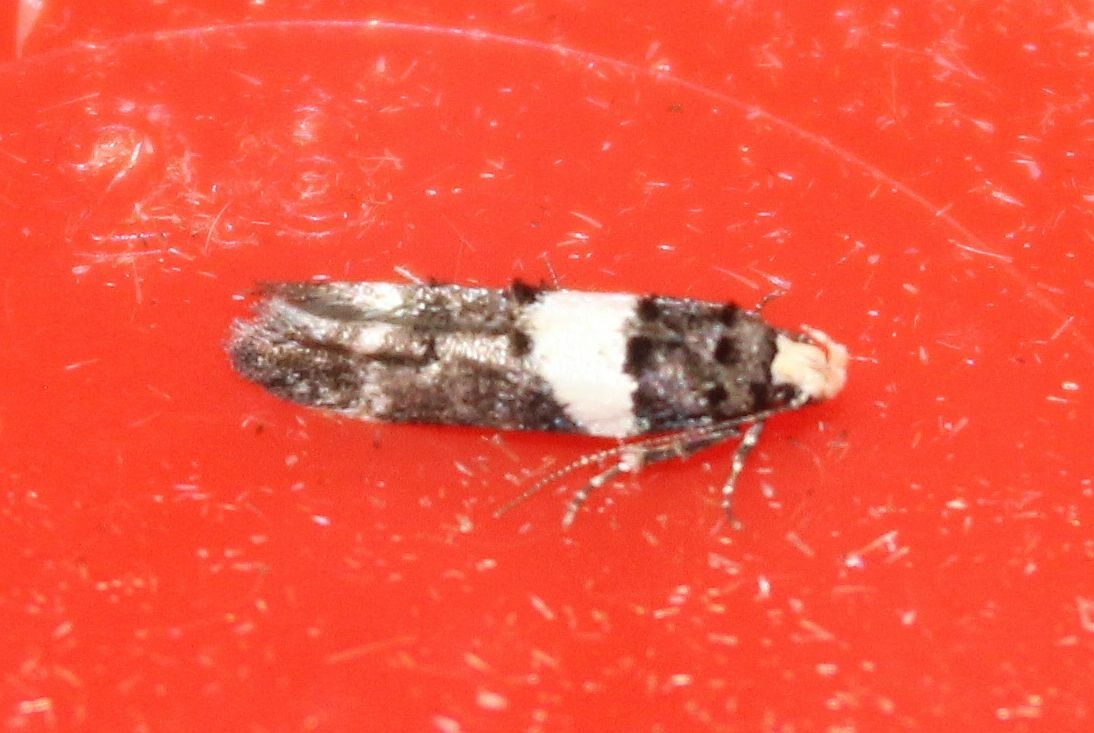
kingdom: Animalia
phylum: Arthropoda
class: Insecta
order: Lepidoptera
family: Gelechiidae
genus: Recurvaria
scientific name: Recurvaria leucatella
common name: White-barred groundling
